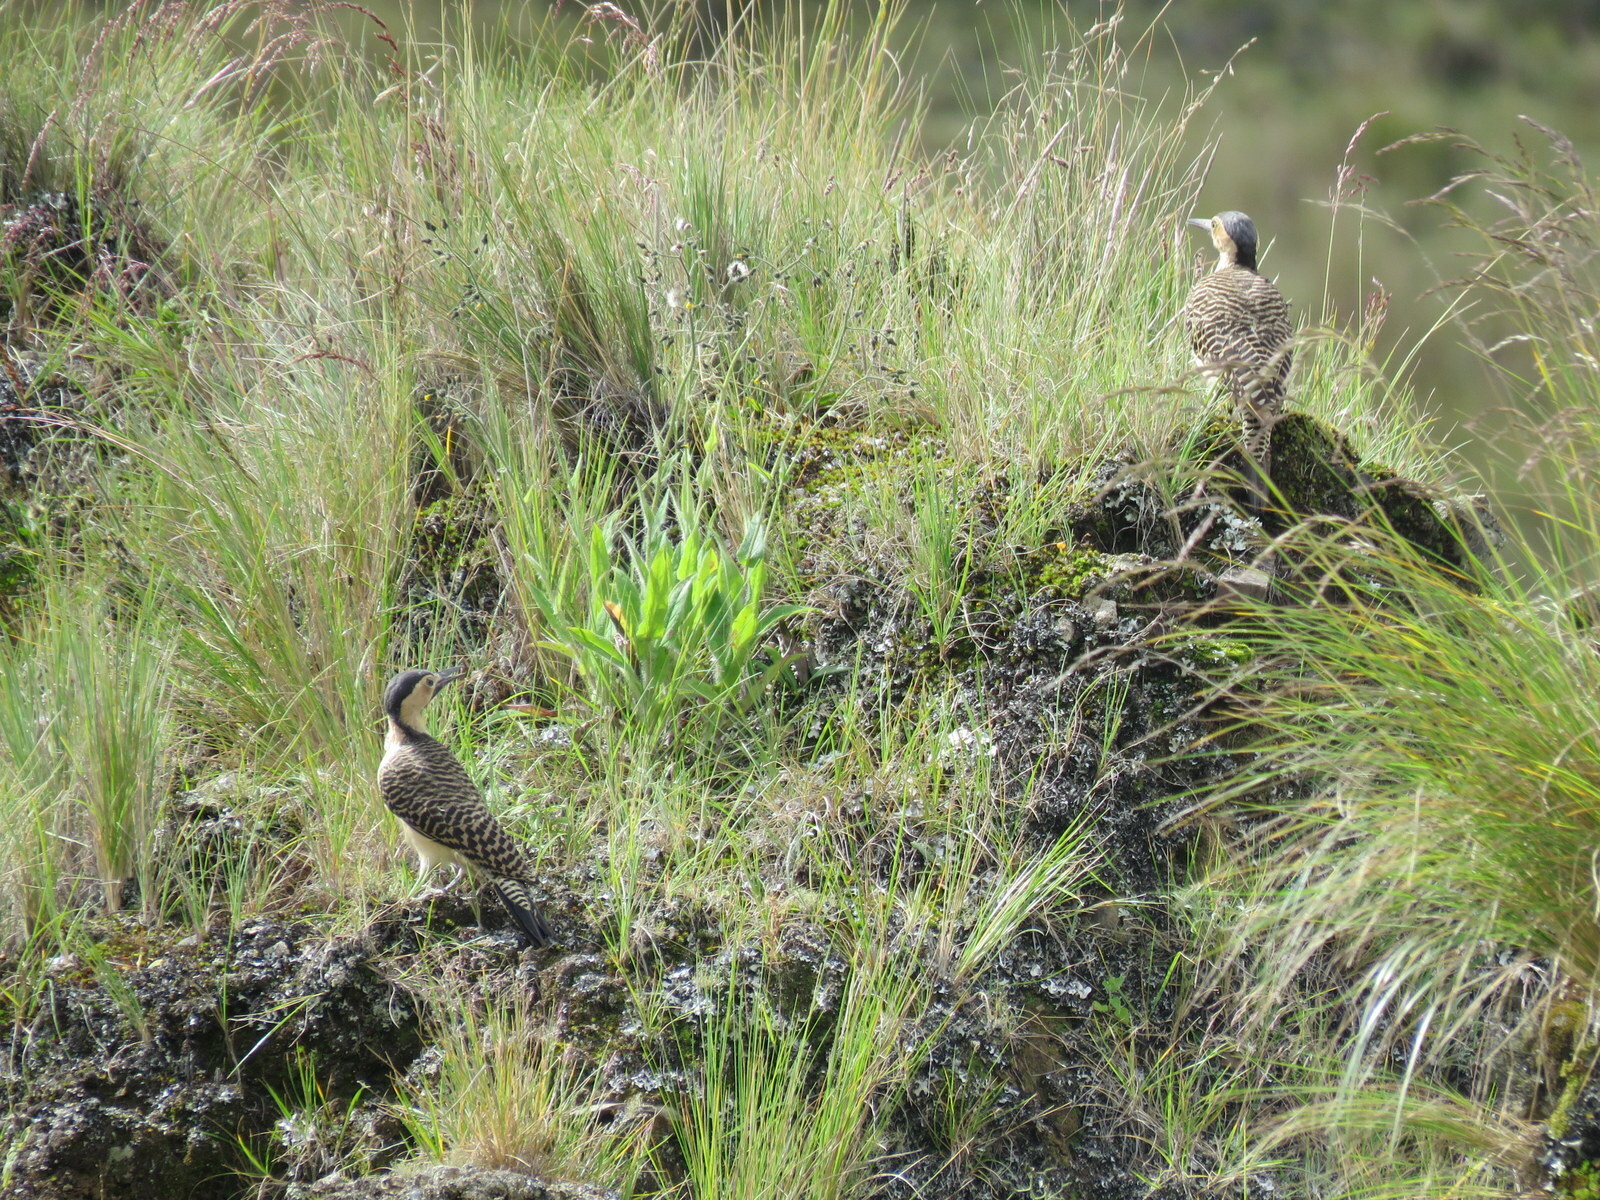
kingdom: Animalia
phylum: Chordata
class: Aves
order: Piciformes
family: Picidae
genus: Colaptes
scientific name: Colaptes rupicola
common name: Andean flicker
